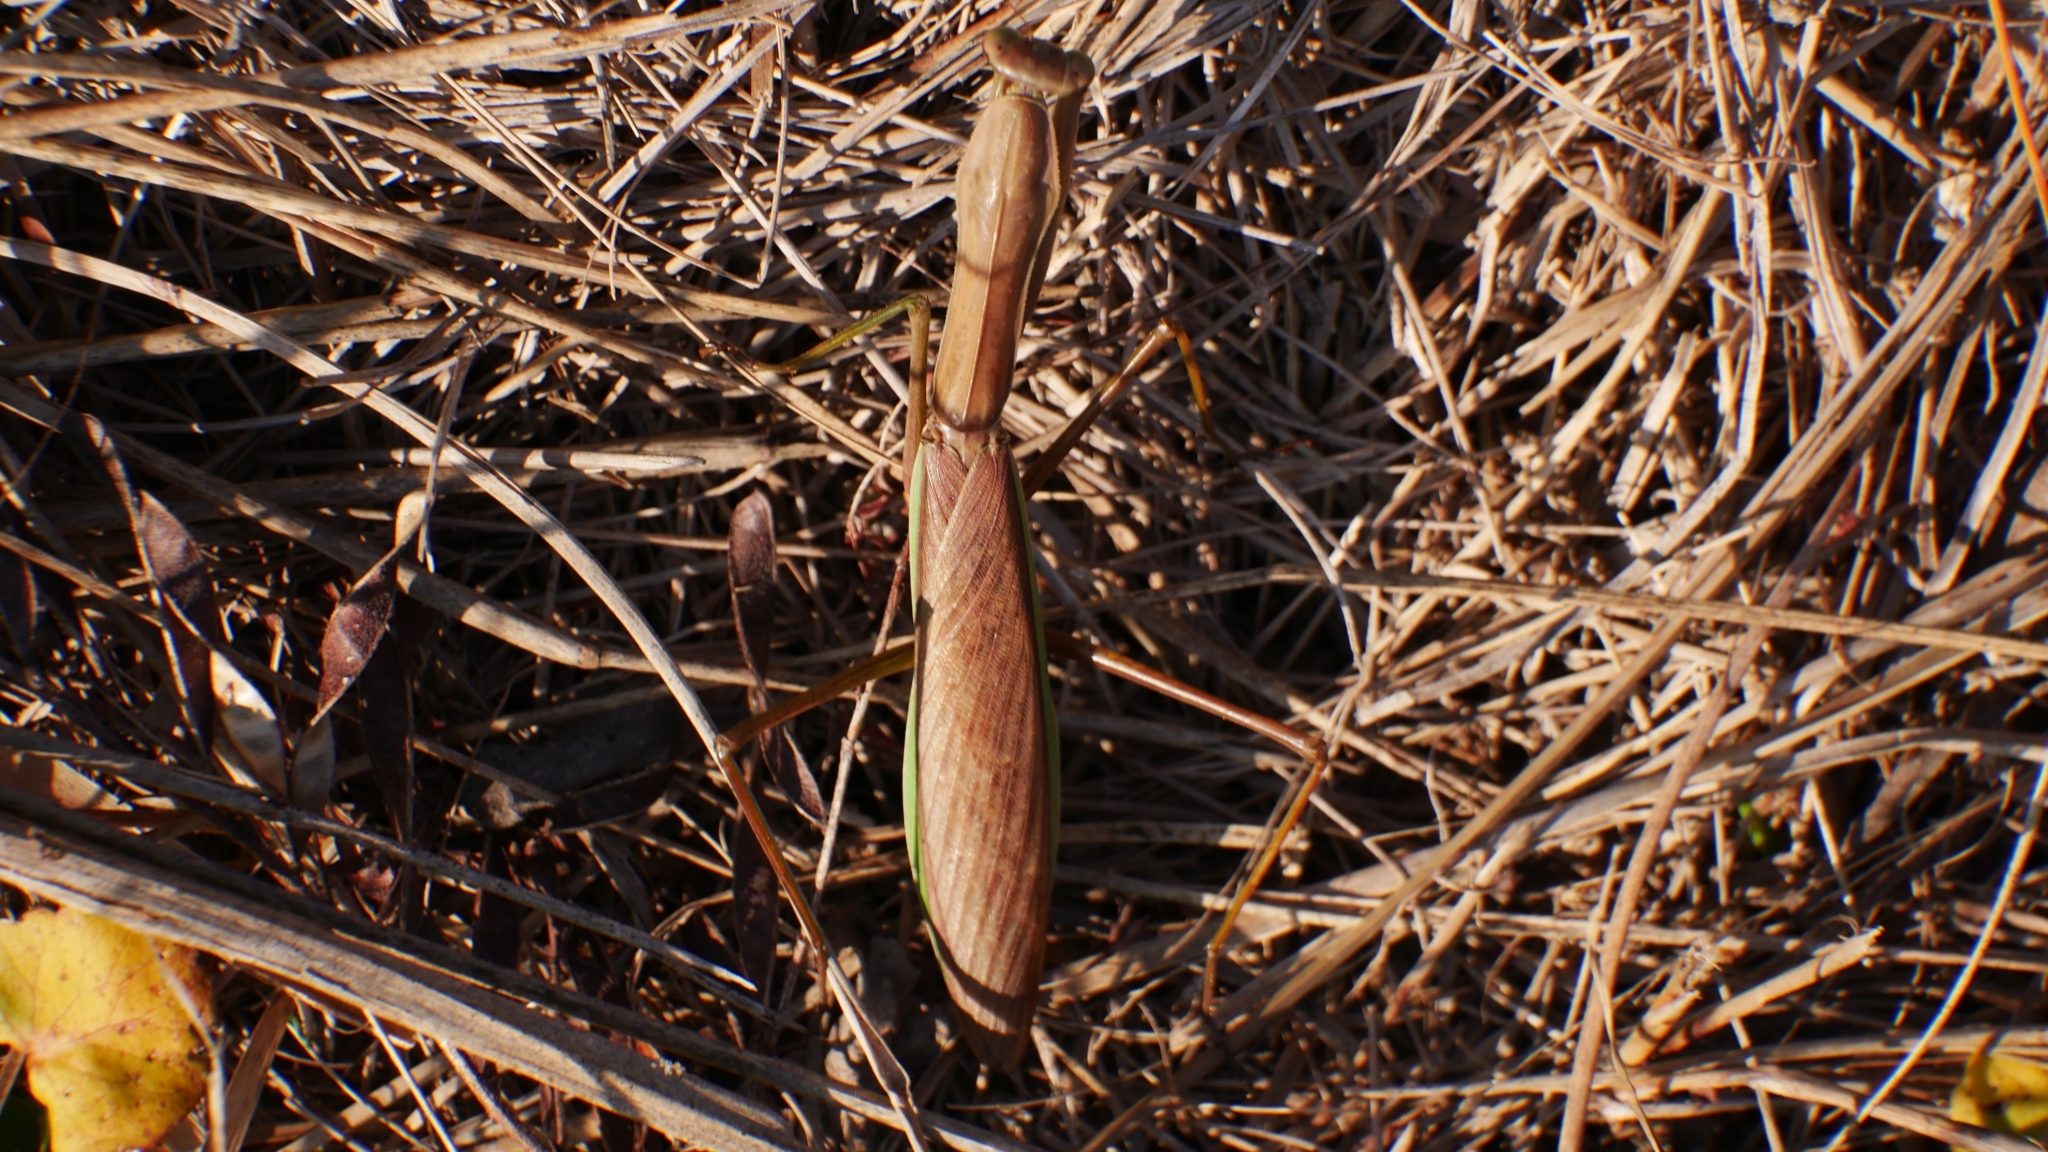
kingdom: Animalia
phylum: Arthropoda
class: Insecta
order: Mantodea
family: Mantidae
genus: Tenodera
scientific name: Tenodera sinensis
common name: Chinese mantis
